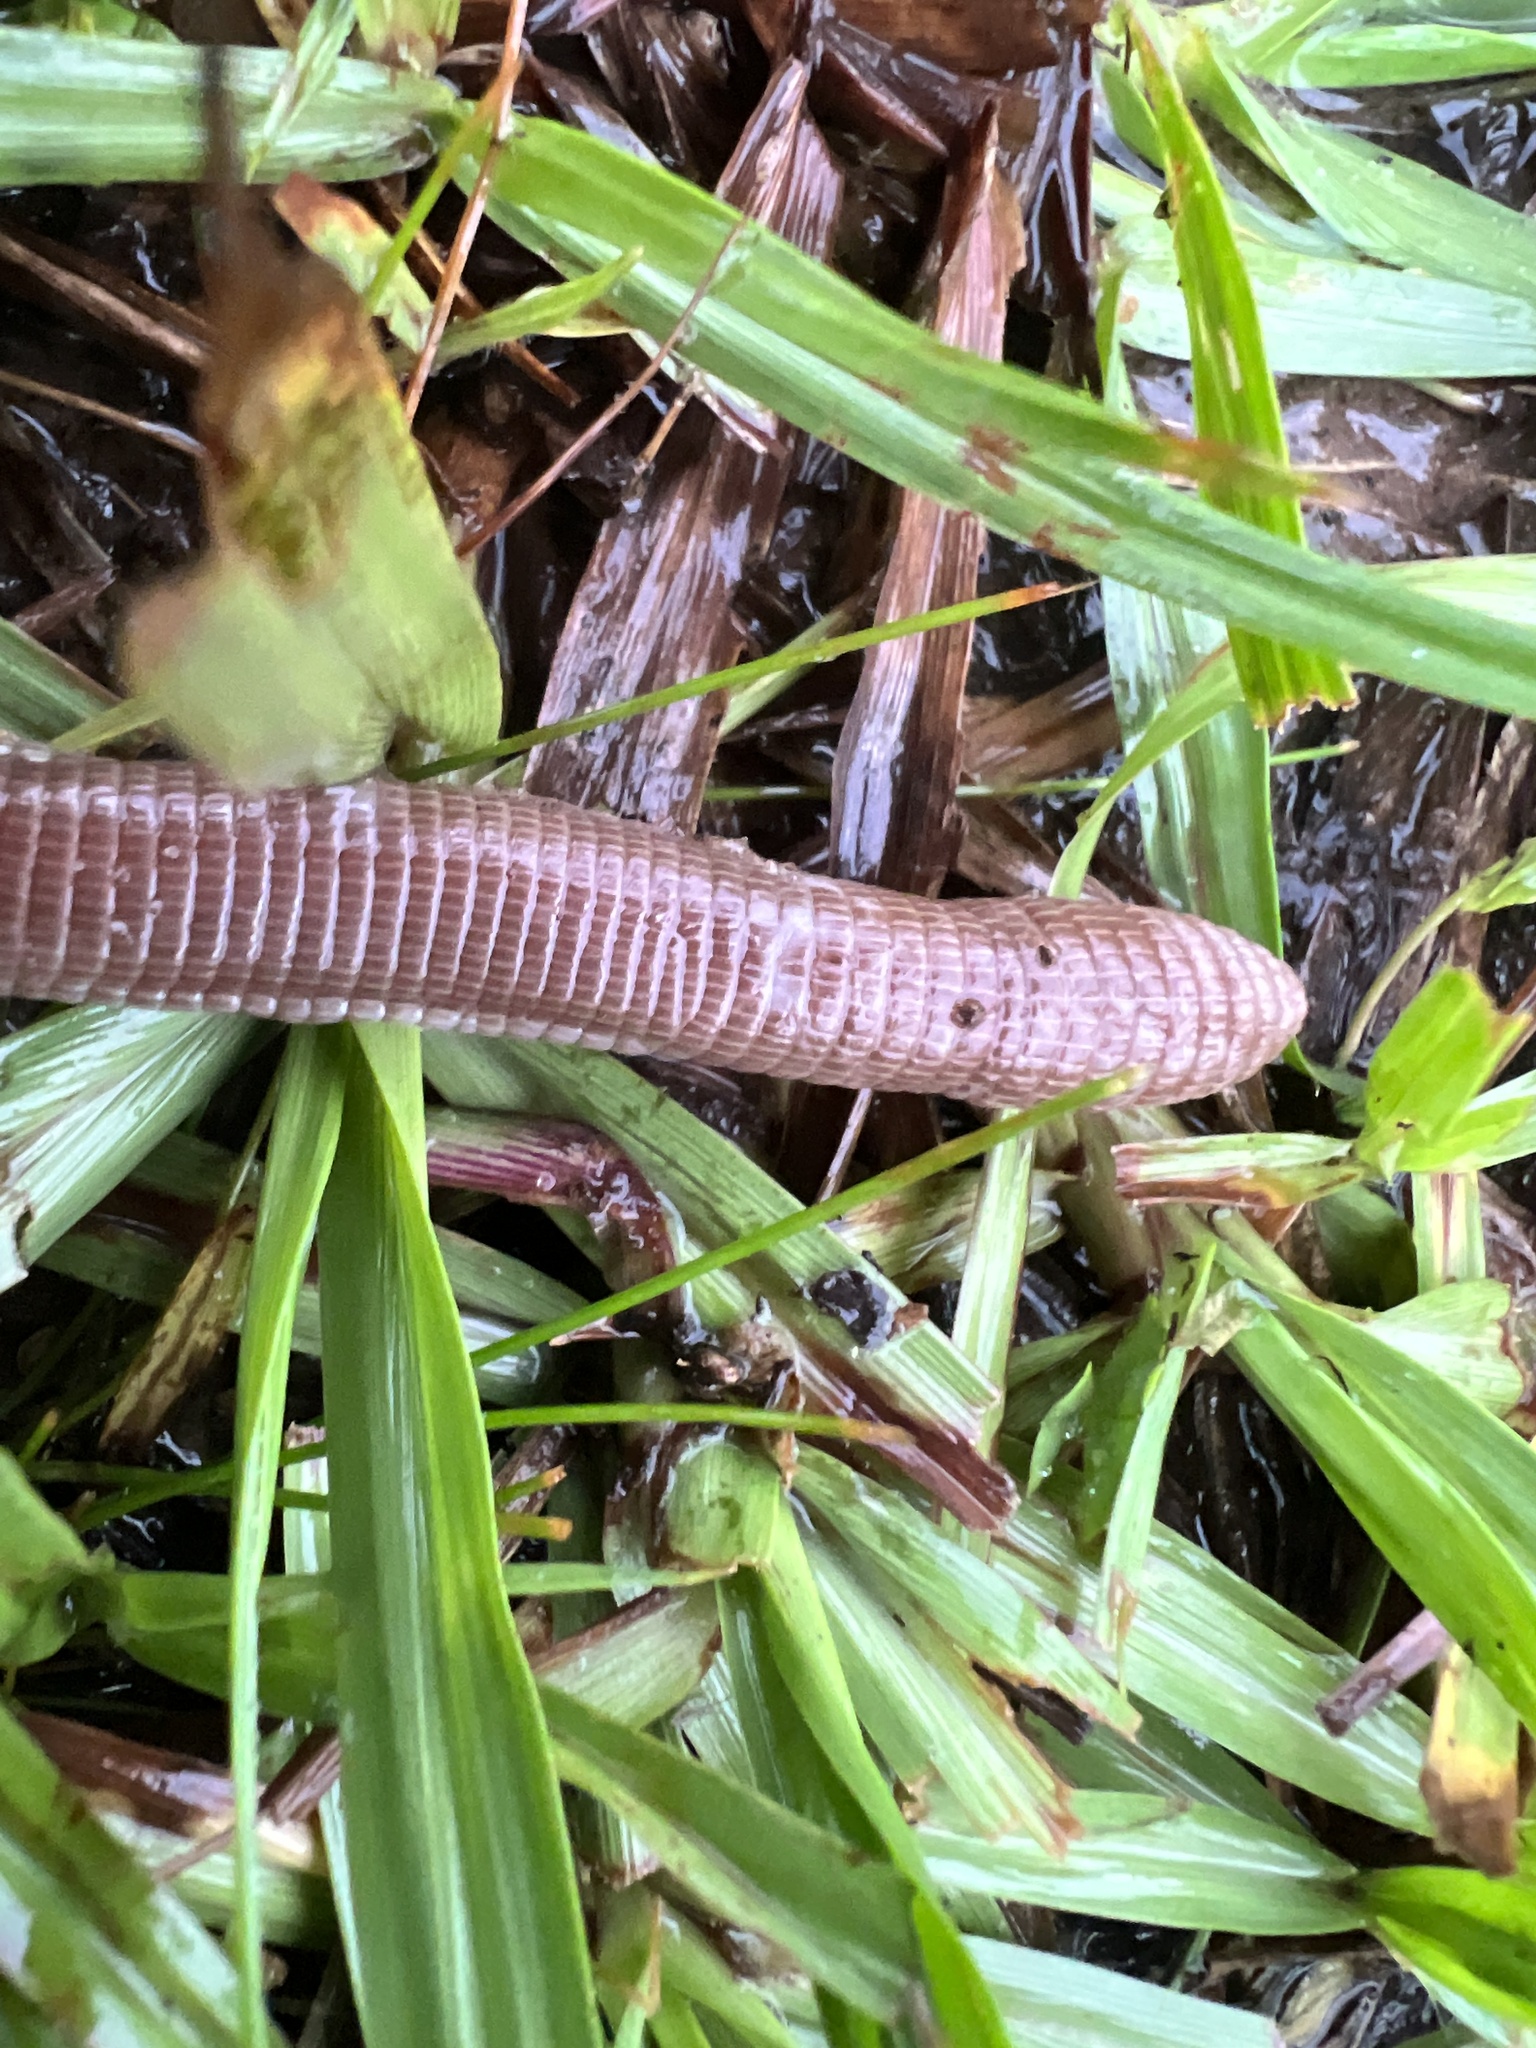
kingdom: Animalia
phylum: Chordata
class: Squamata
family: Amphisbaenidae
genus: Amphisbaena
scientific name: Amphisbaena darwinii
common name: Darwin's ringed worm lizard
